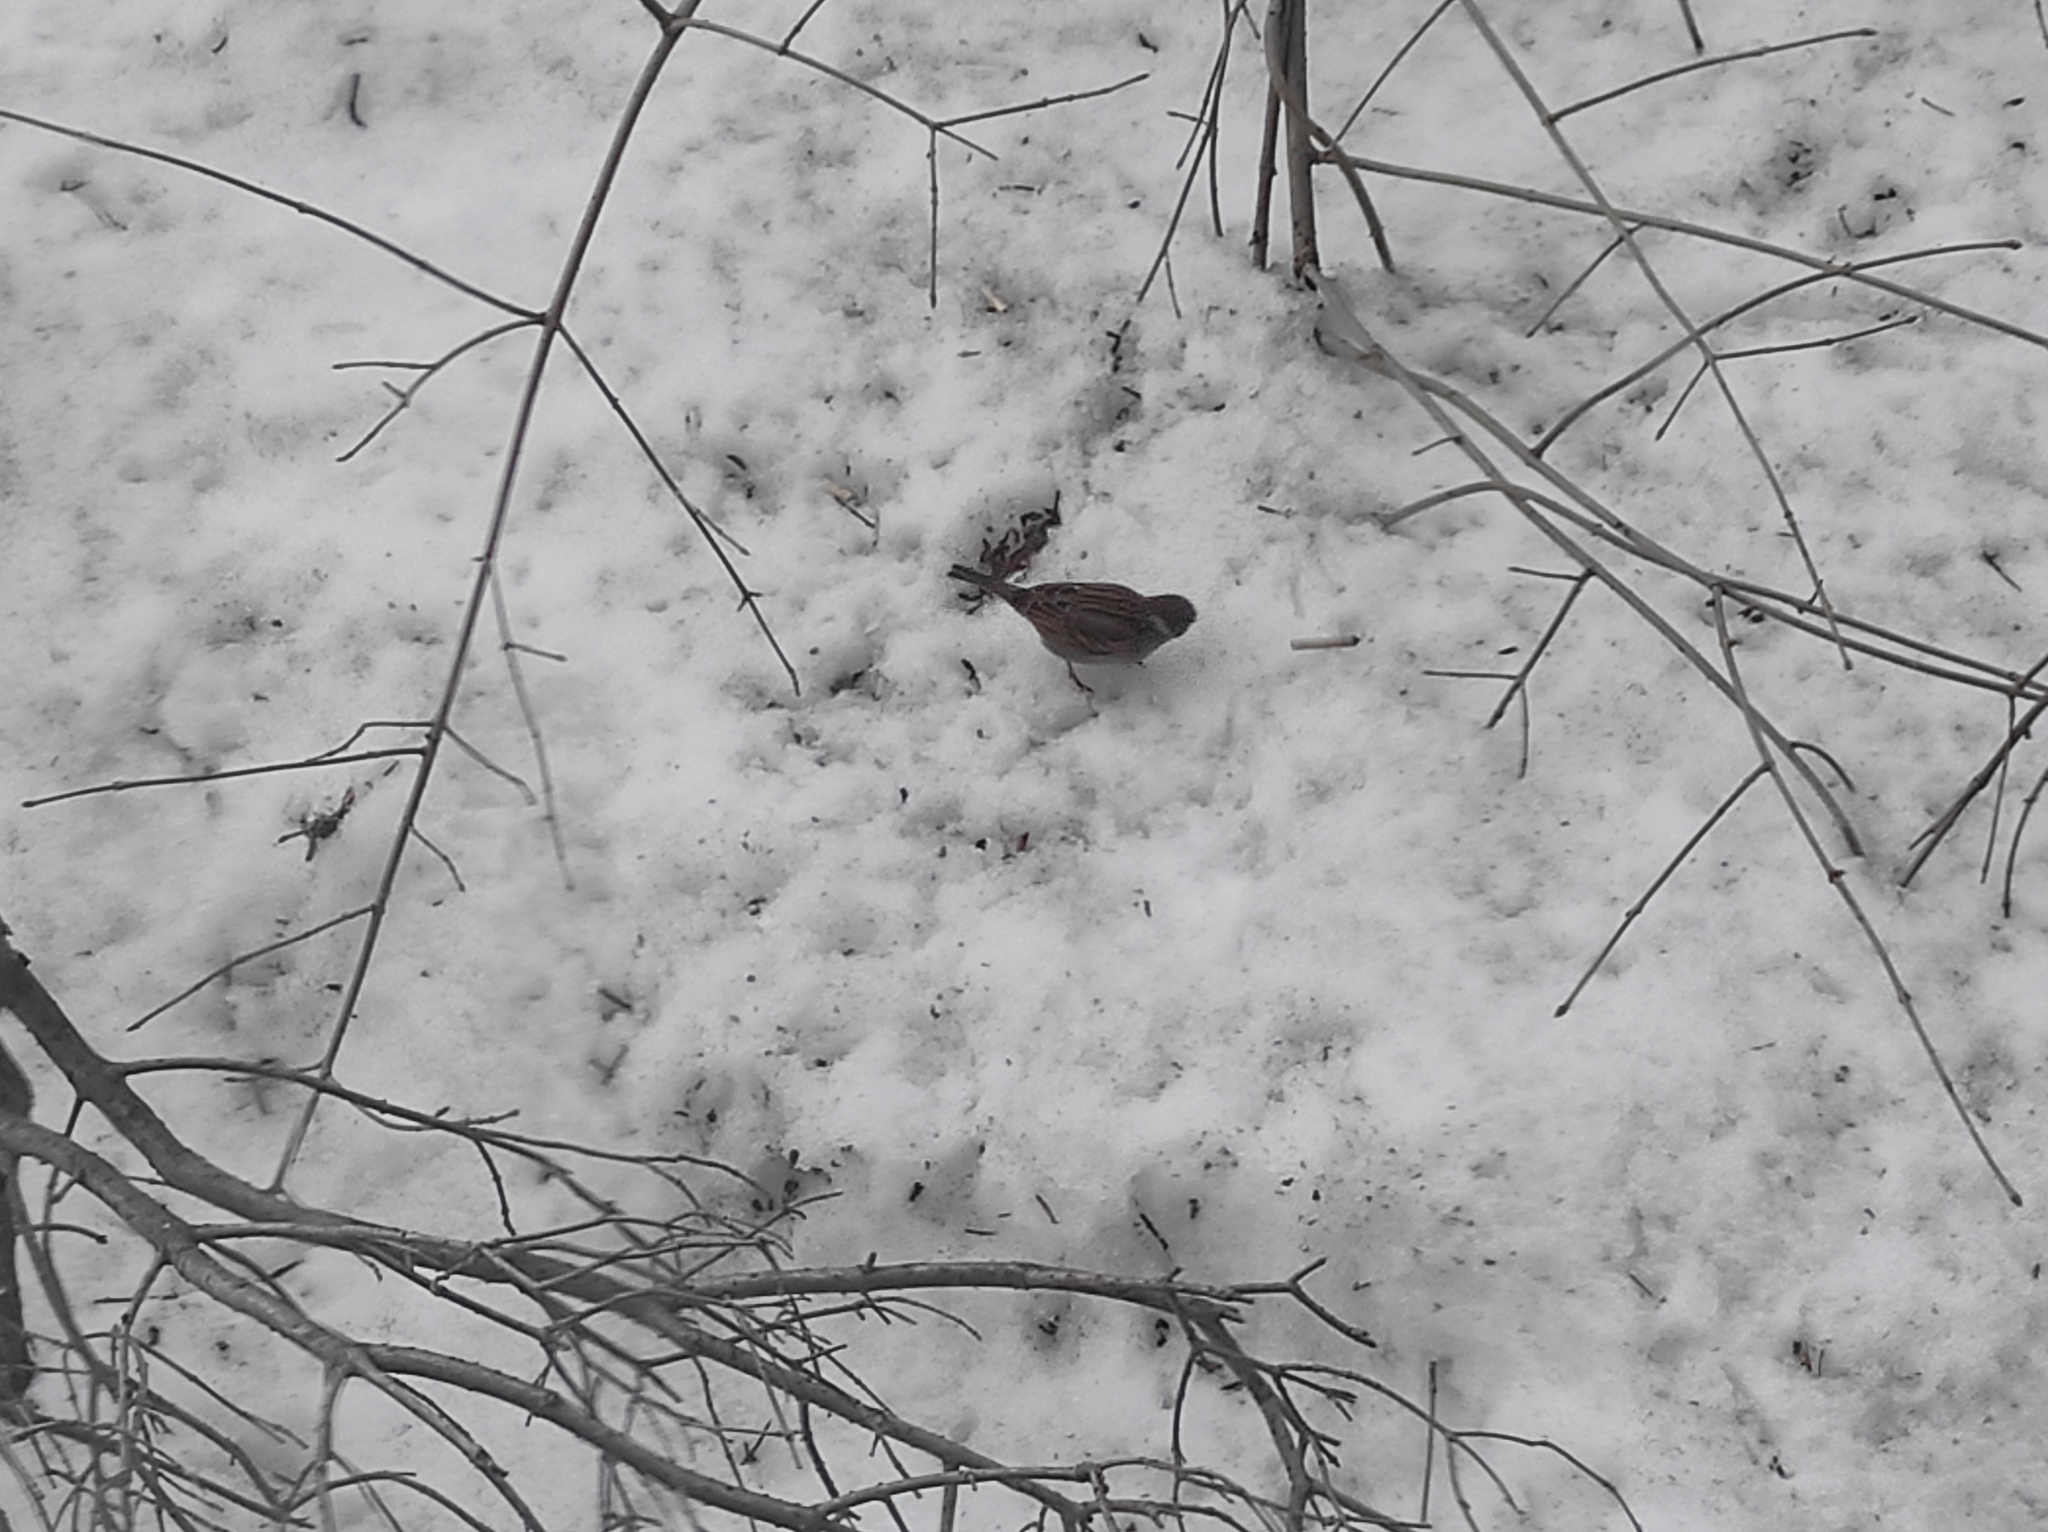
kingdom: Animalia
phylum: Chordata
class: Aves
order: Passeriformes
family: Passeridae
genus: Passer
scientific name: Passer montanus
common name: Eurasian tree sparrow
